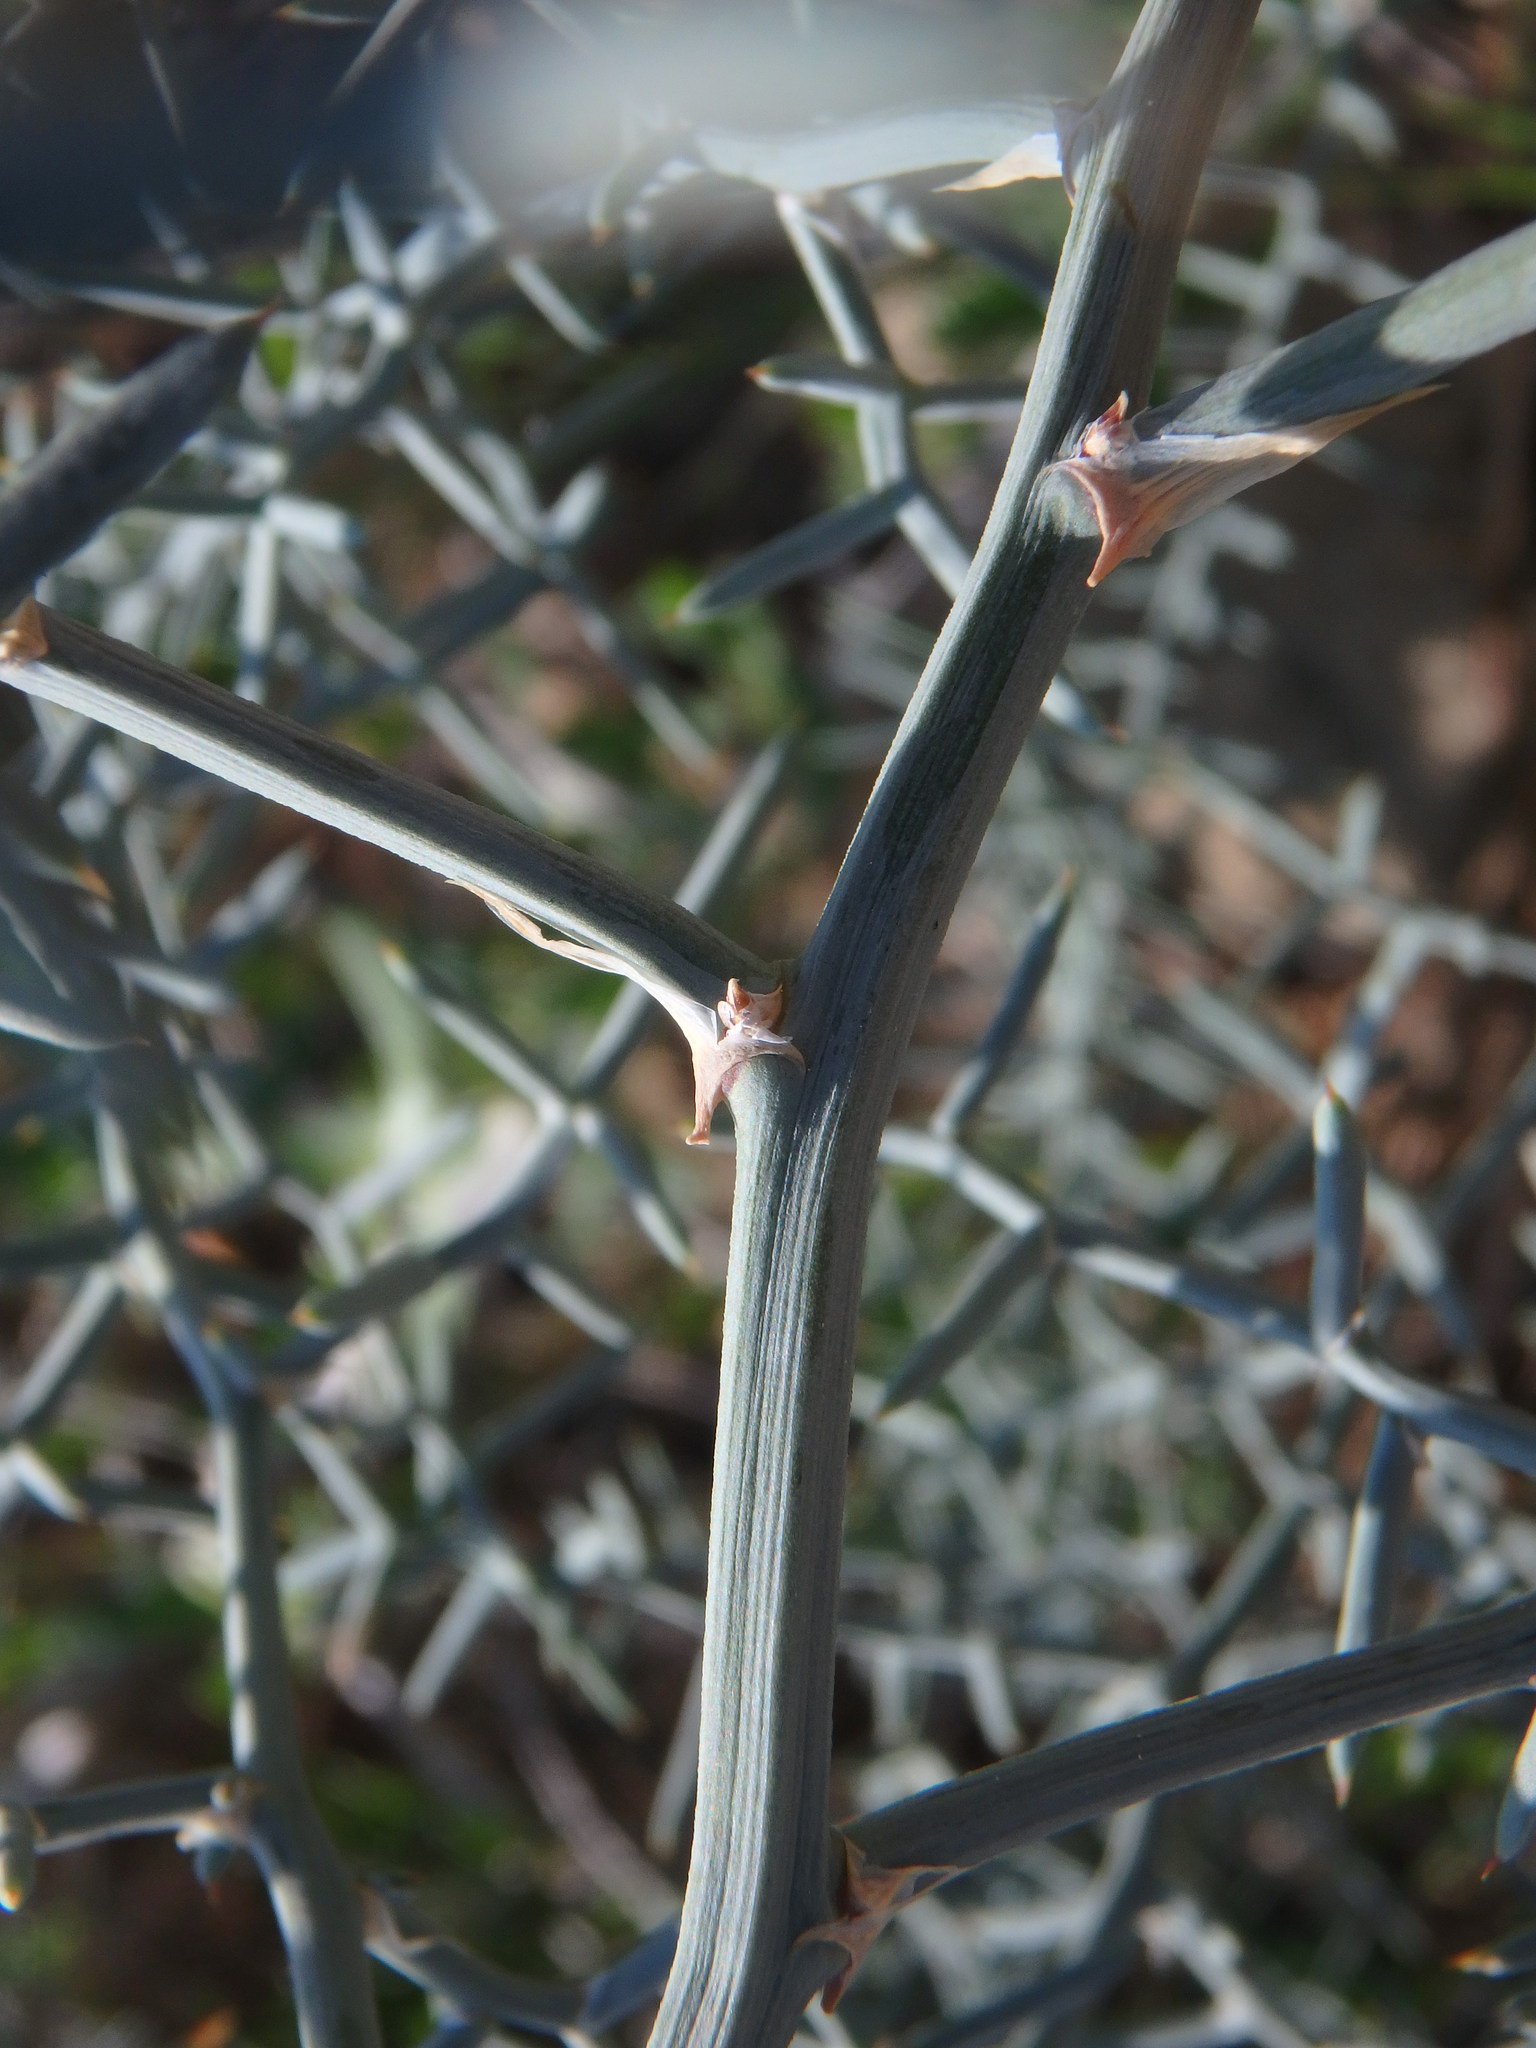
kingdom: Plantae
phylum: Tracheophyta
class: Liliopsida
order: Asparagales
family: Asparagaceae
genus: Asparagus
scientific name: Asparagus horridus
